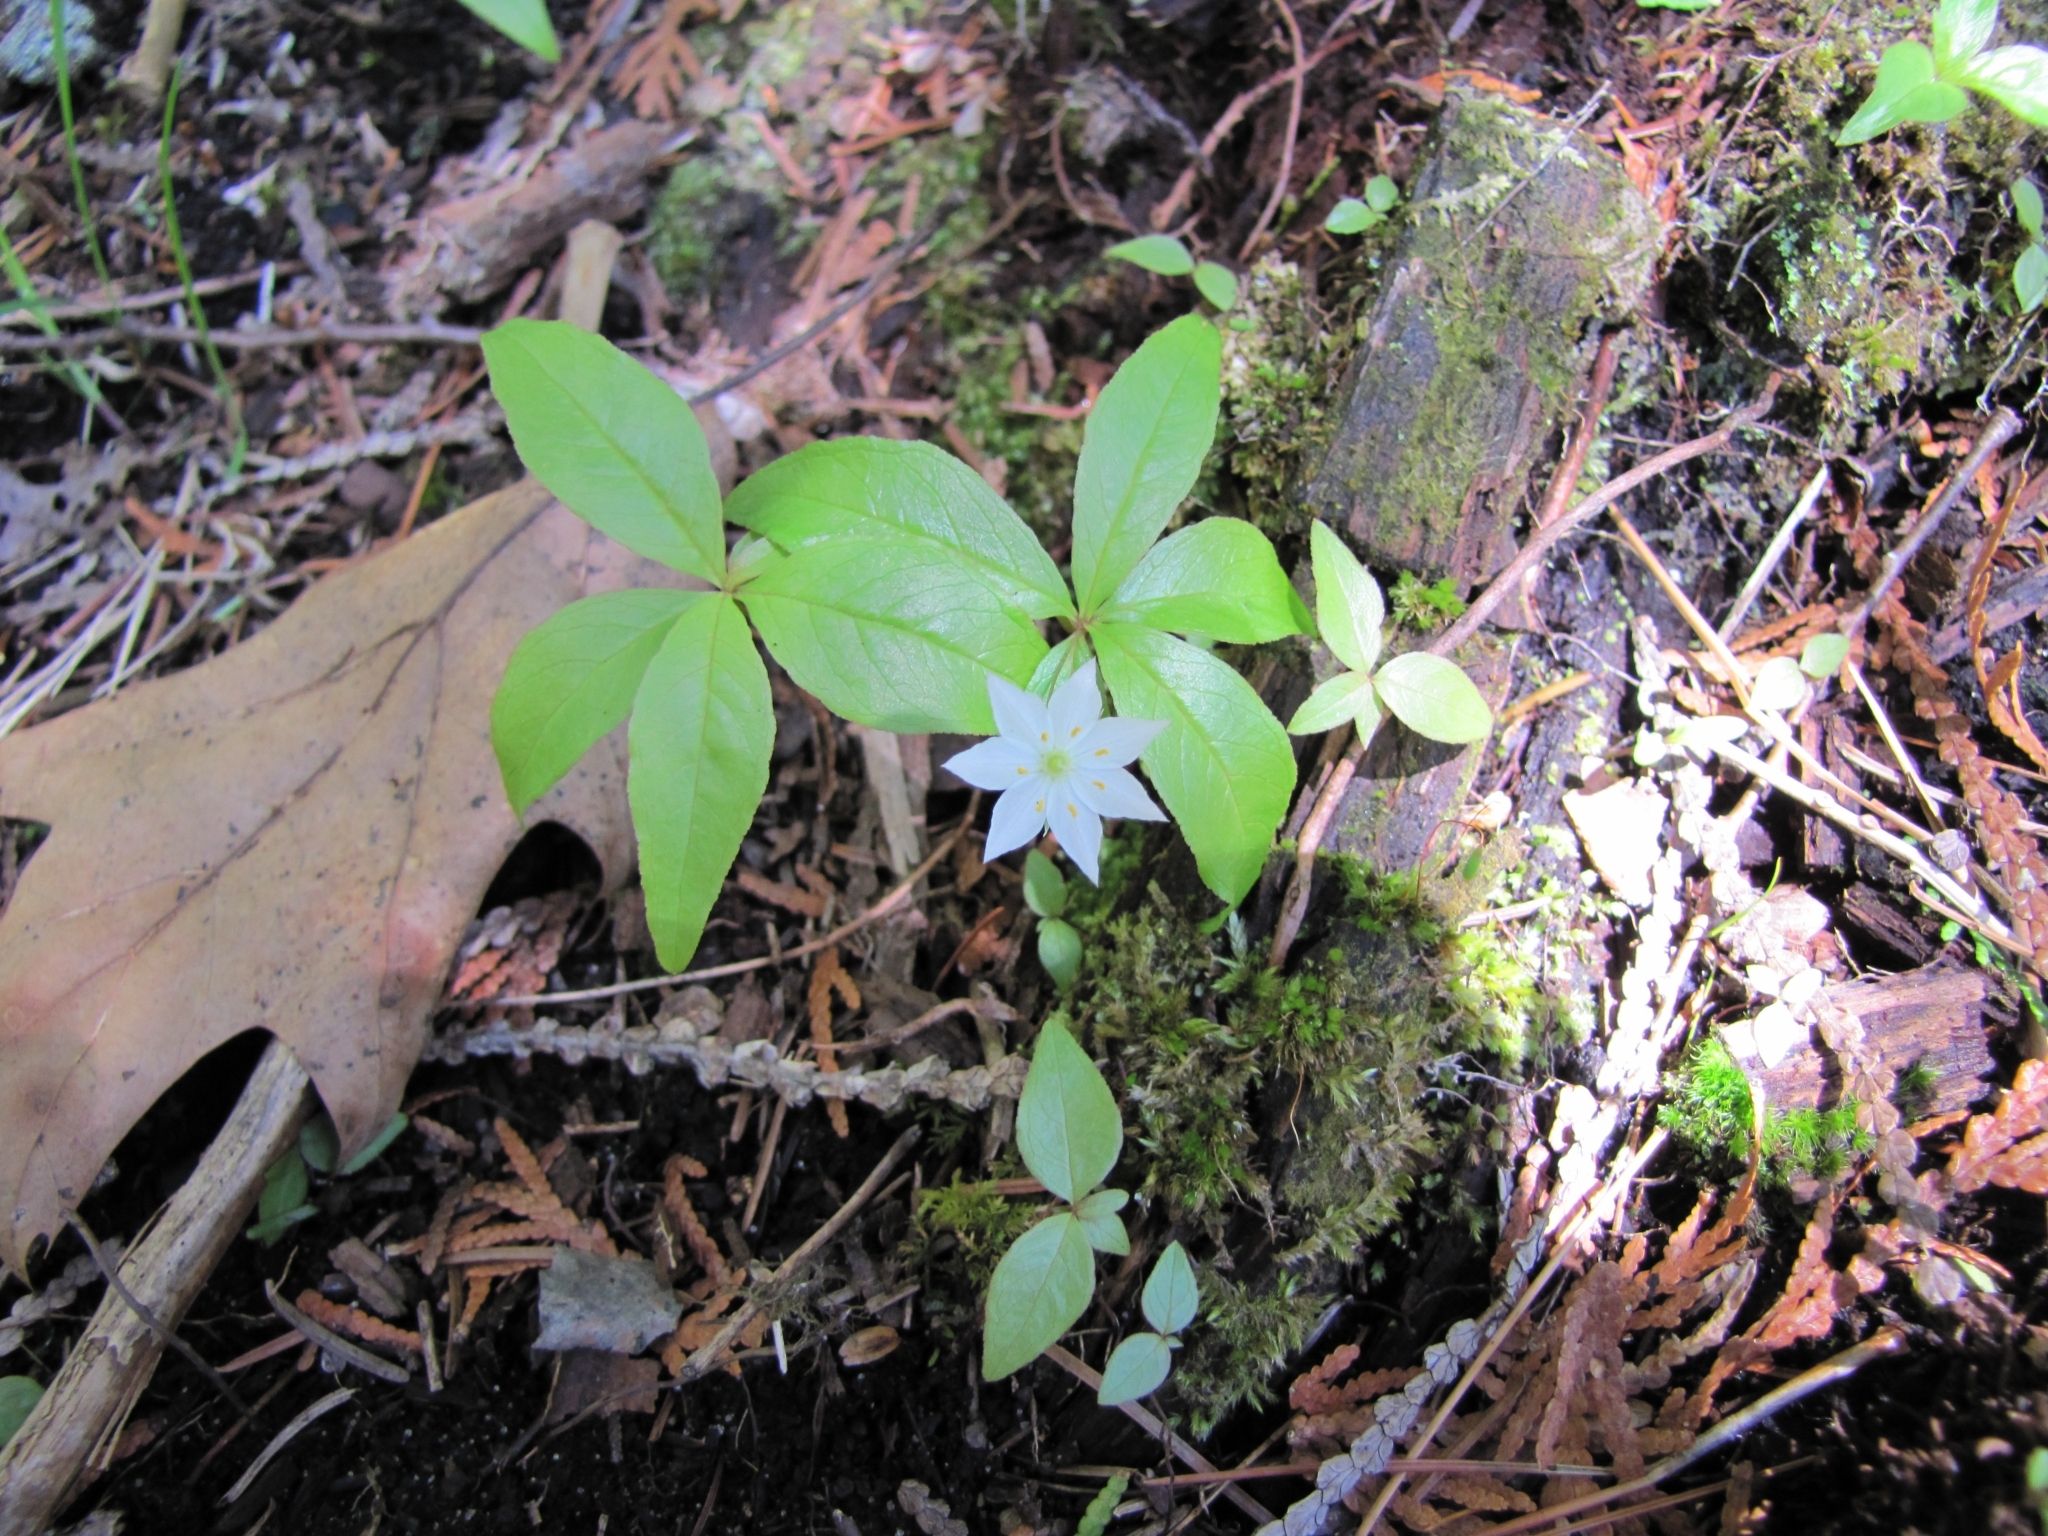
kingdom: Plantae
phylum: Tracheophyta
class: Magnoliopsida
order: Ericales
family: Primulaceae
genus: Lysimachia
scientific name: Lysimachia borealis
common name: American starflower
